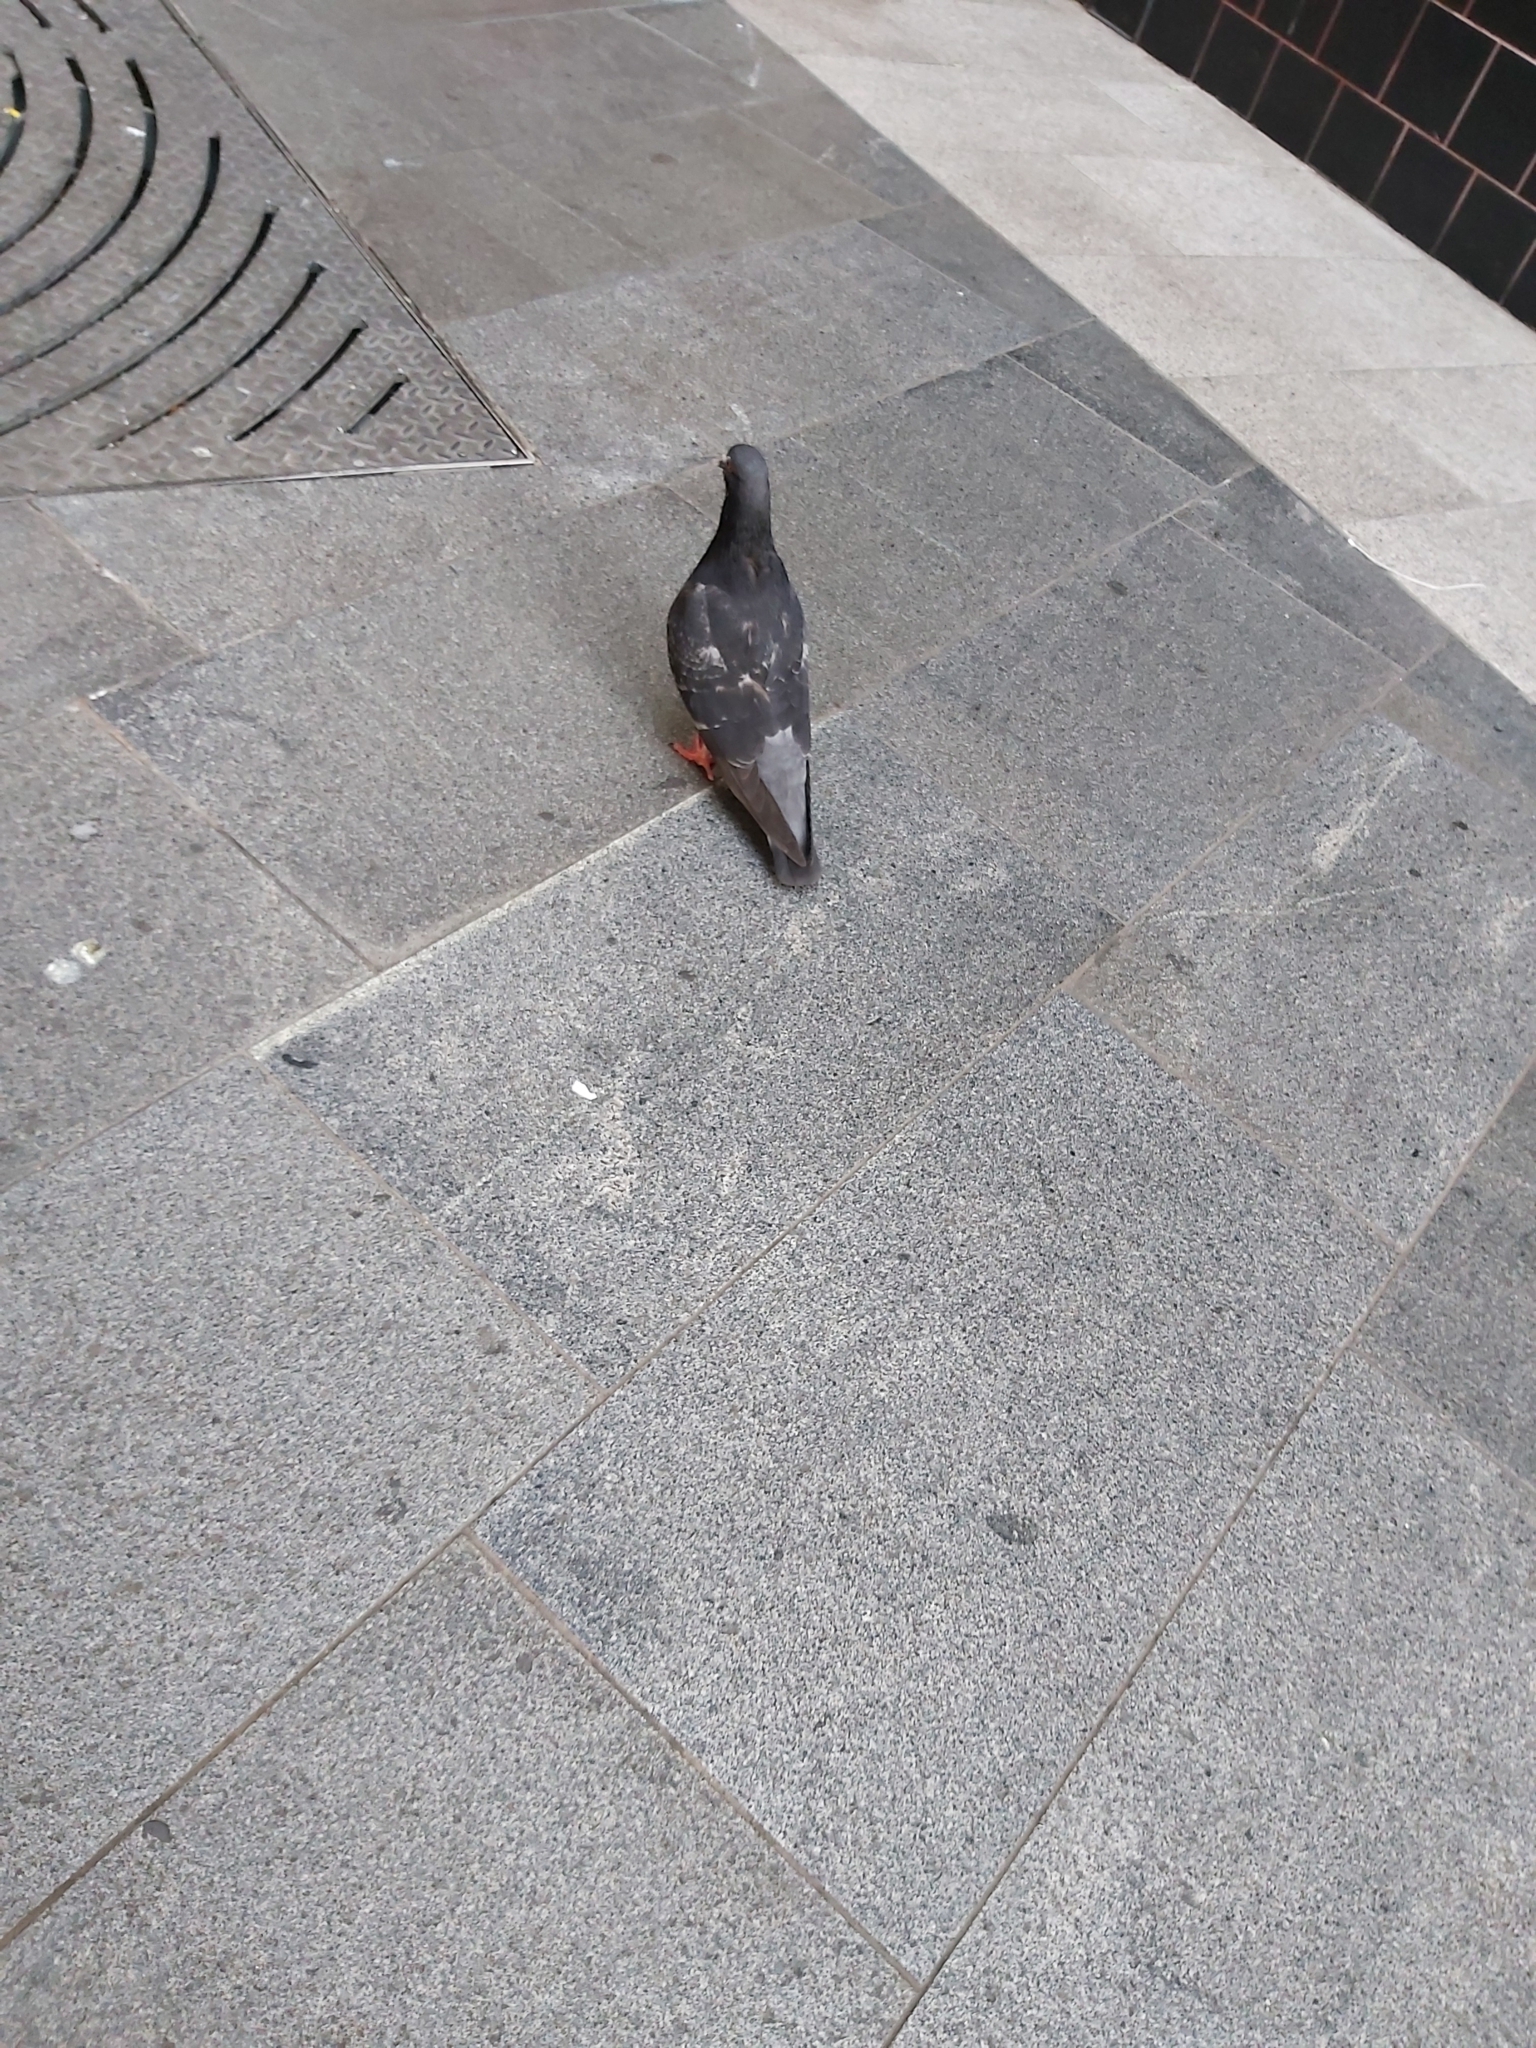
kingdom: Animalia
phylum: Chordata
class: Aves
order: Columbiformes
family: Columbidae
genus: Columba
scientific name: Columba livia
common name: Rock pigeon
